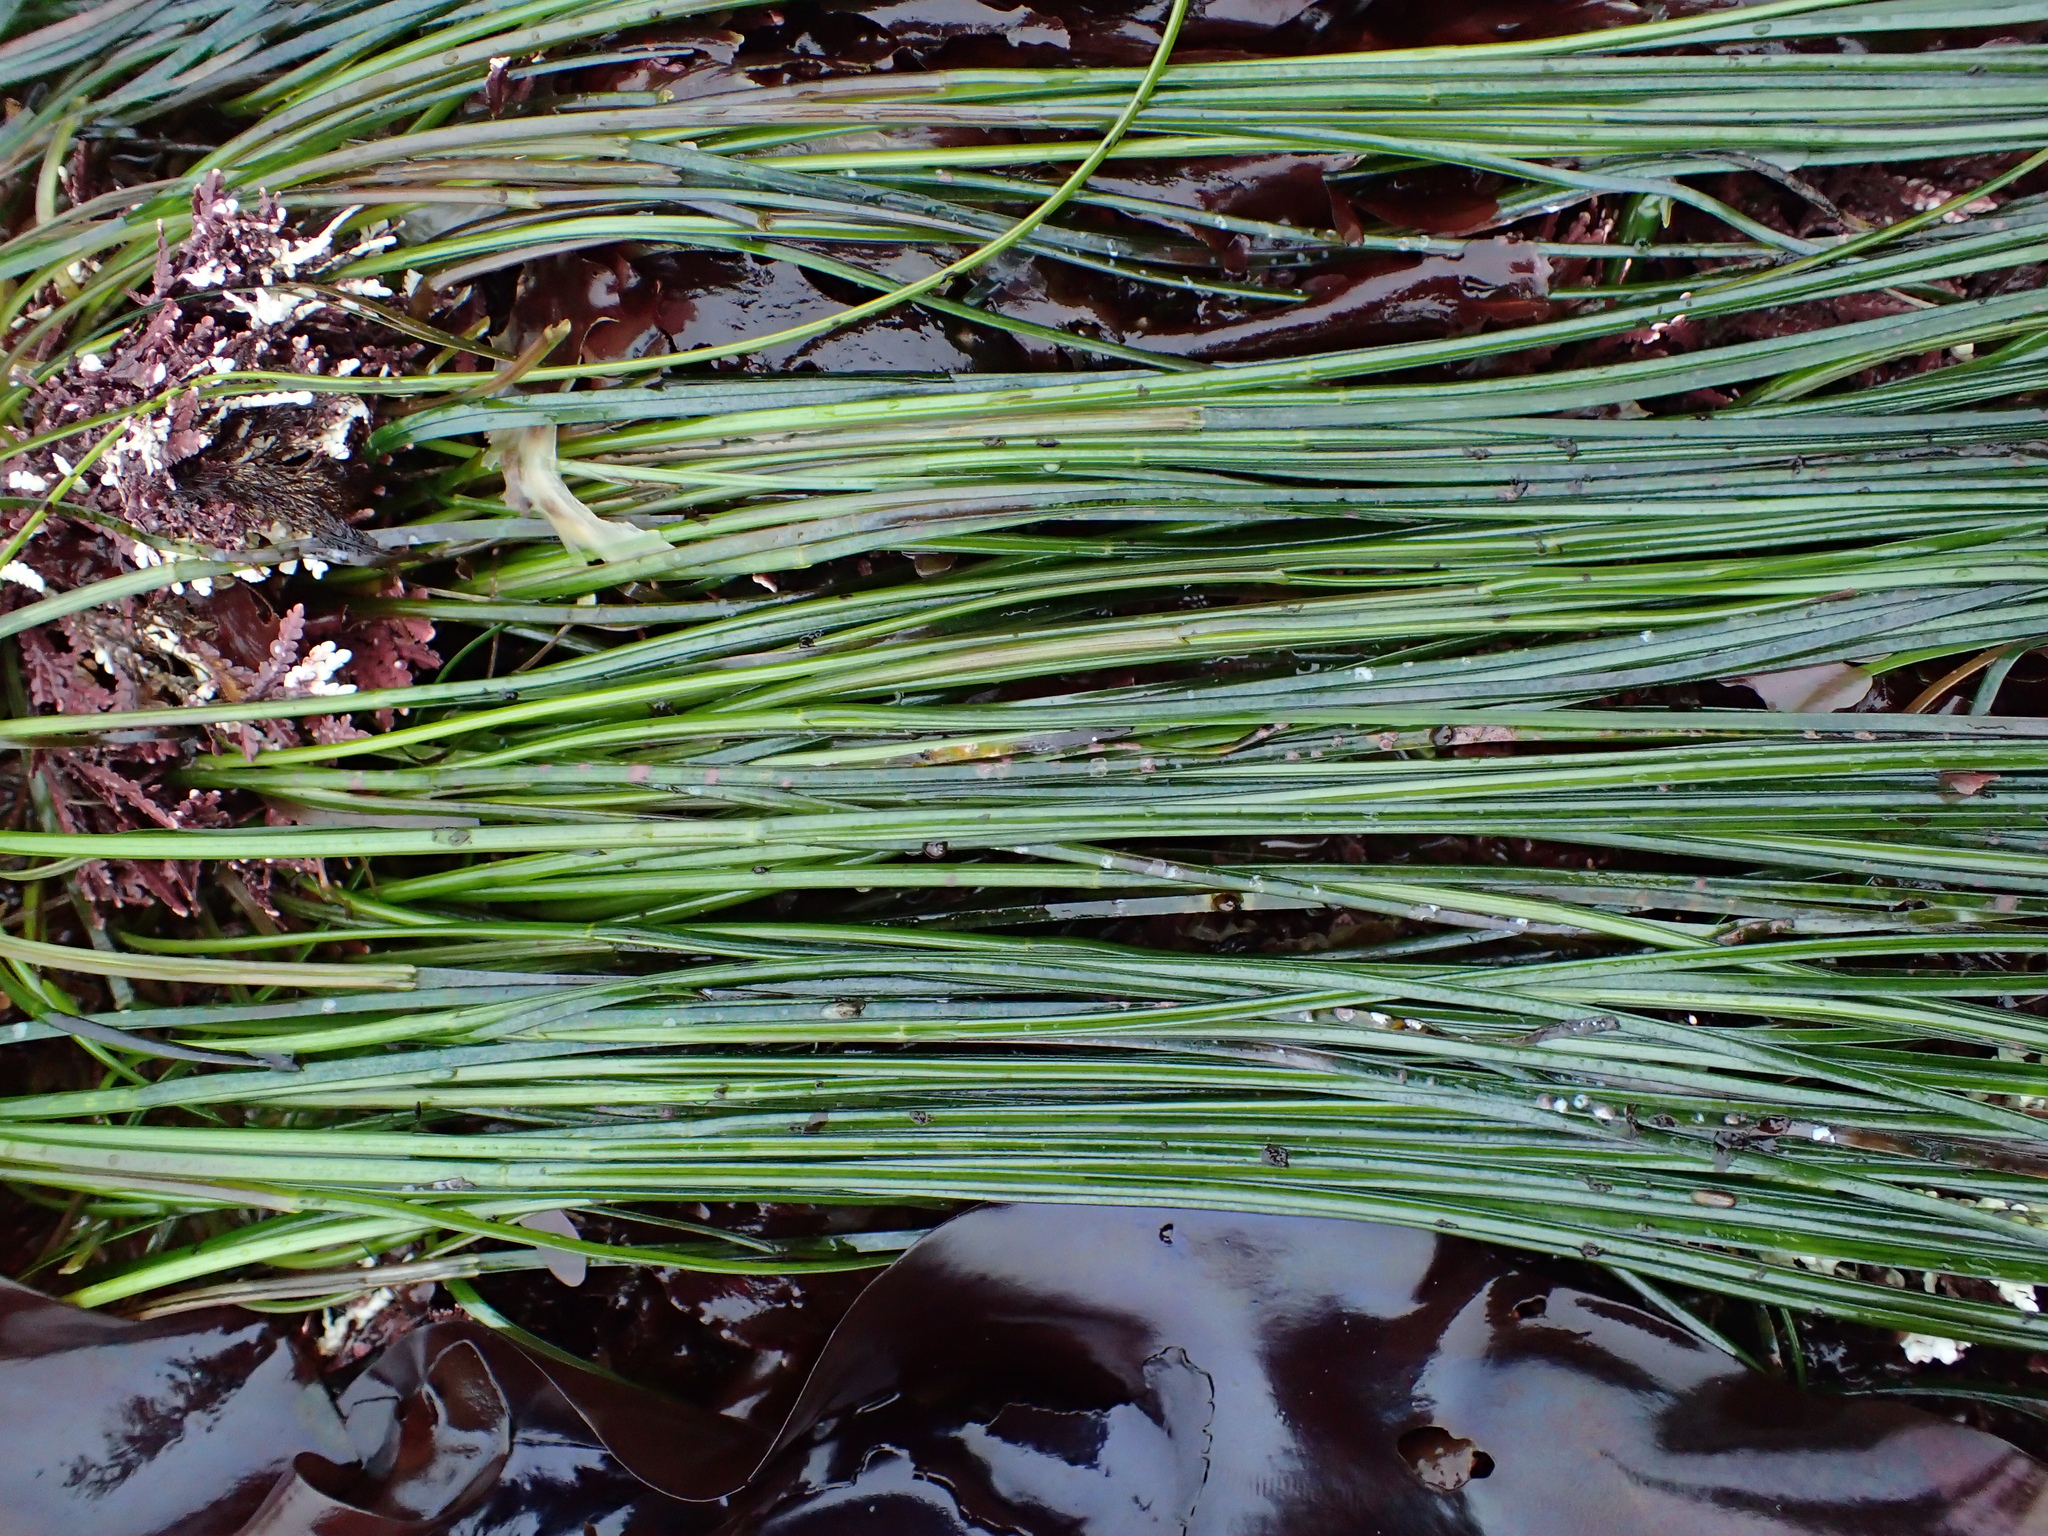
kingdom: Plantae
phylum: Tracheophyta
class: Liliopsida
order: Alismatales
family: Zosteraceae
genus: Phyllospadix
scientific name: Phyllospadix torreyi
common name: Surfgrass
